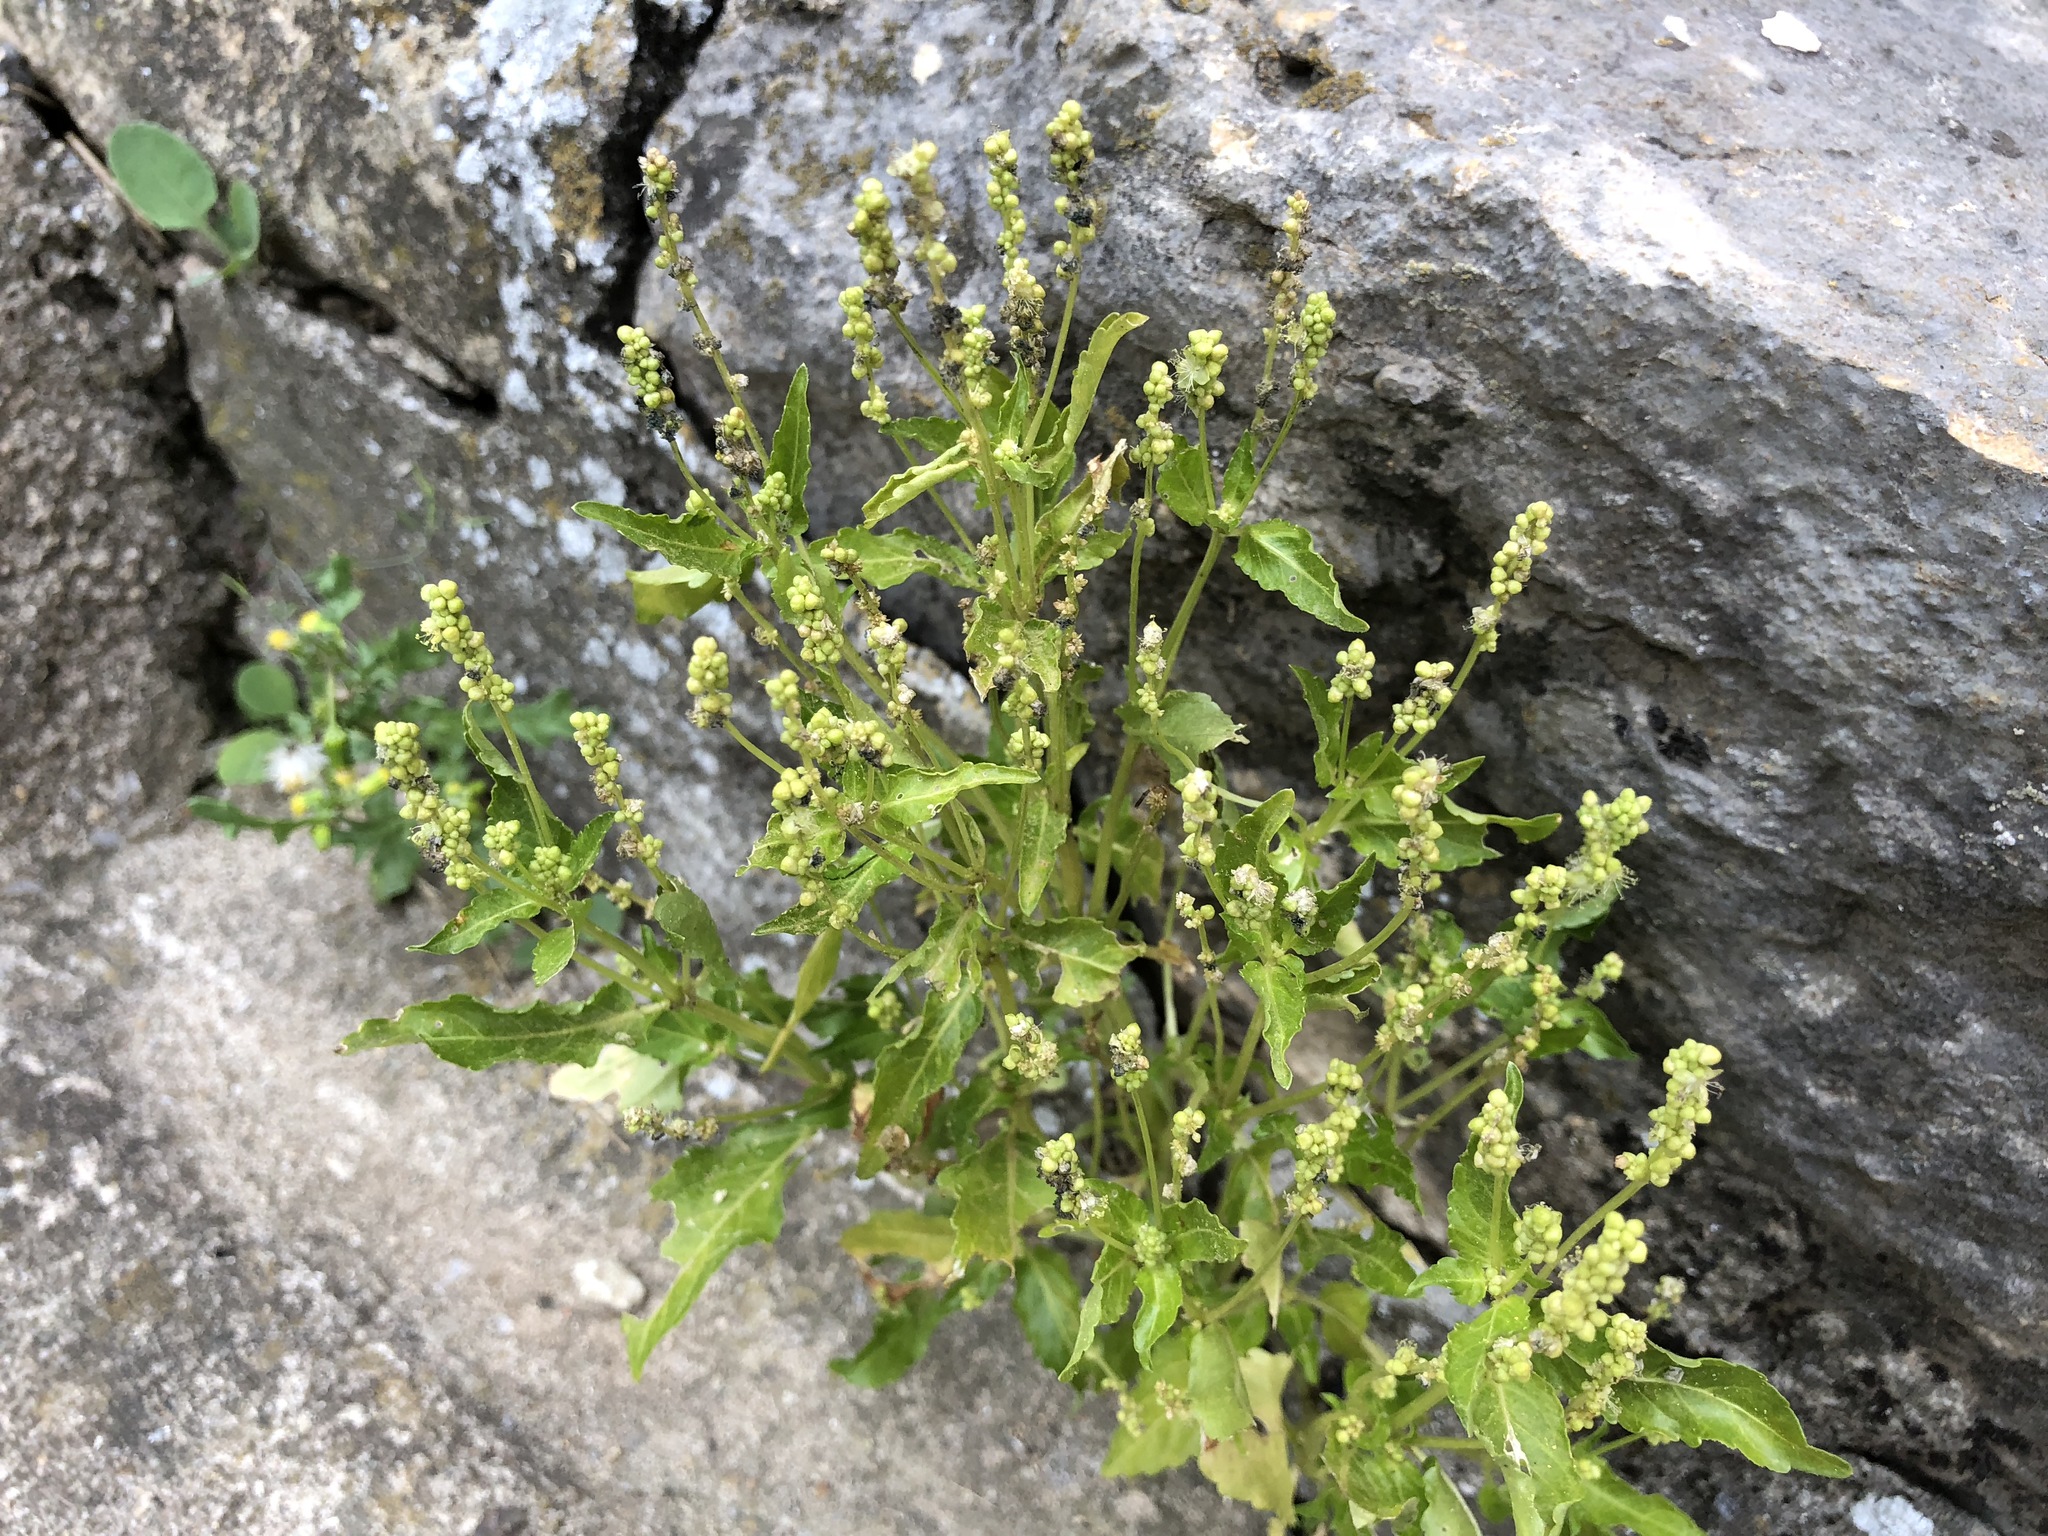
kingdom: Plantae
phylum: Tracheophyta
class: Magnoliopsida
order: Malpighiales
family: Euphorbiaceae
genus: Mercurialis
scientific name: Mercurialis annua
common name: Annual mercury
